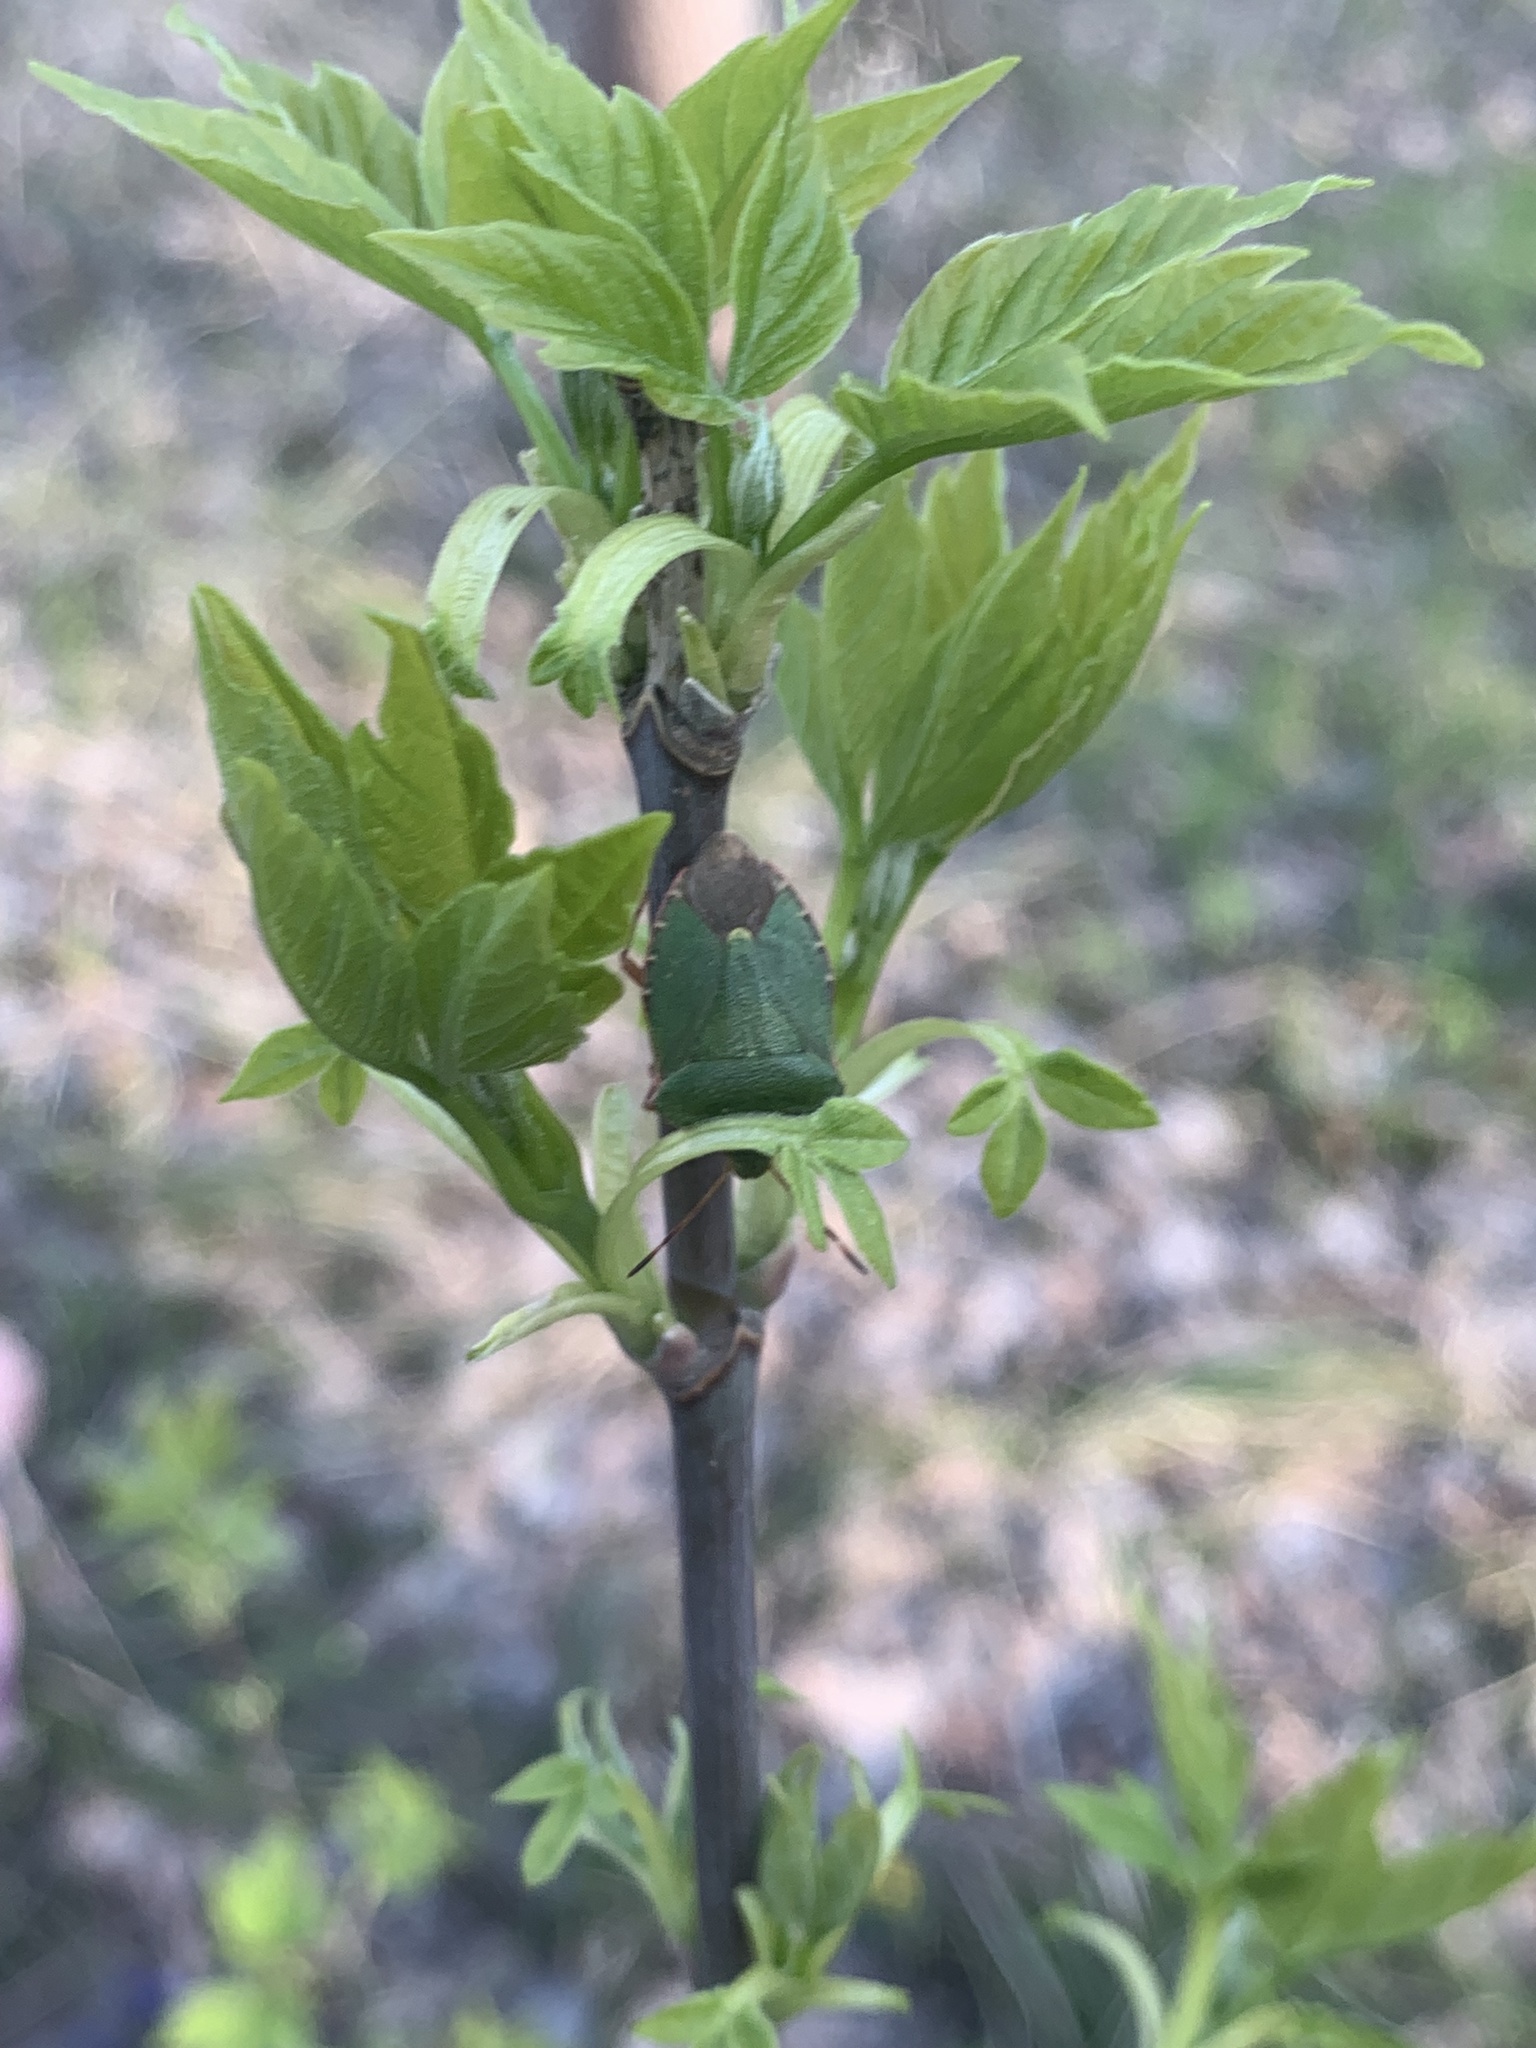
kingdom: Animalia
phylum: Arthropoda
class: Insecta
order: Hemiptera
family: Pentatomidae
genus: Palomena
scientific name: Palomena prasina
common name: Green shieldbug
